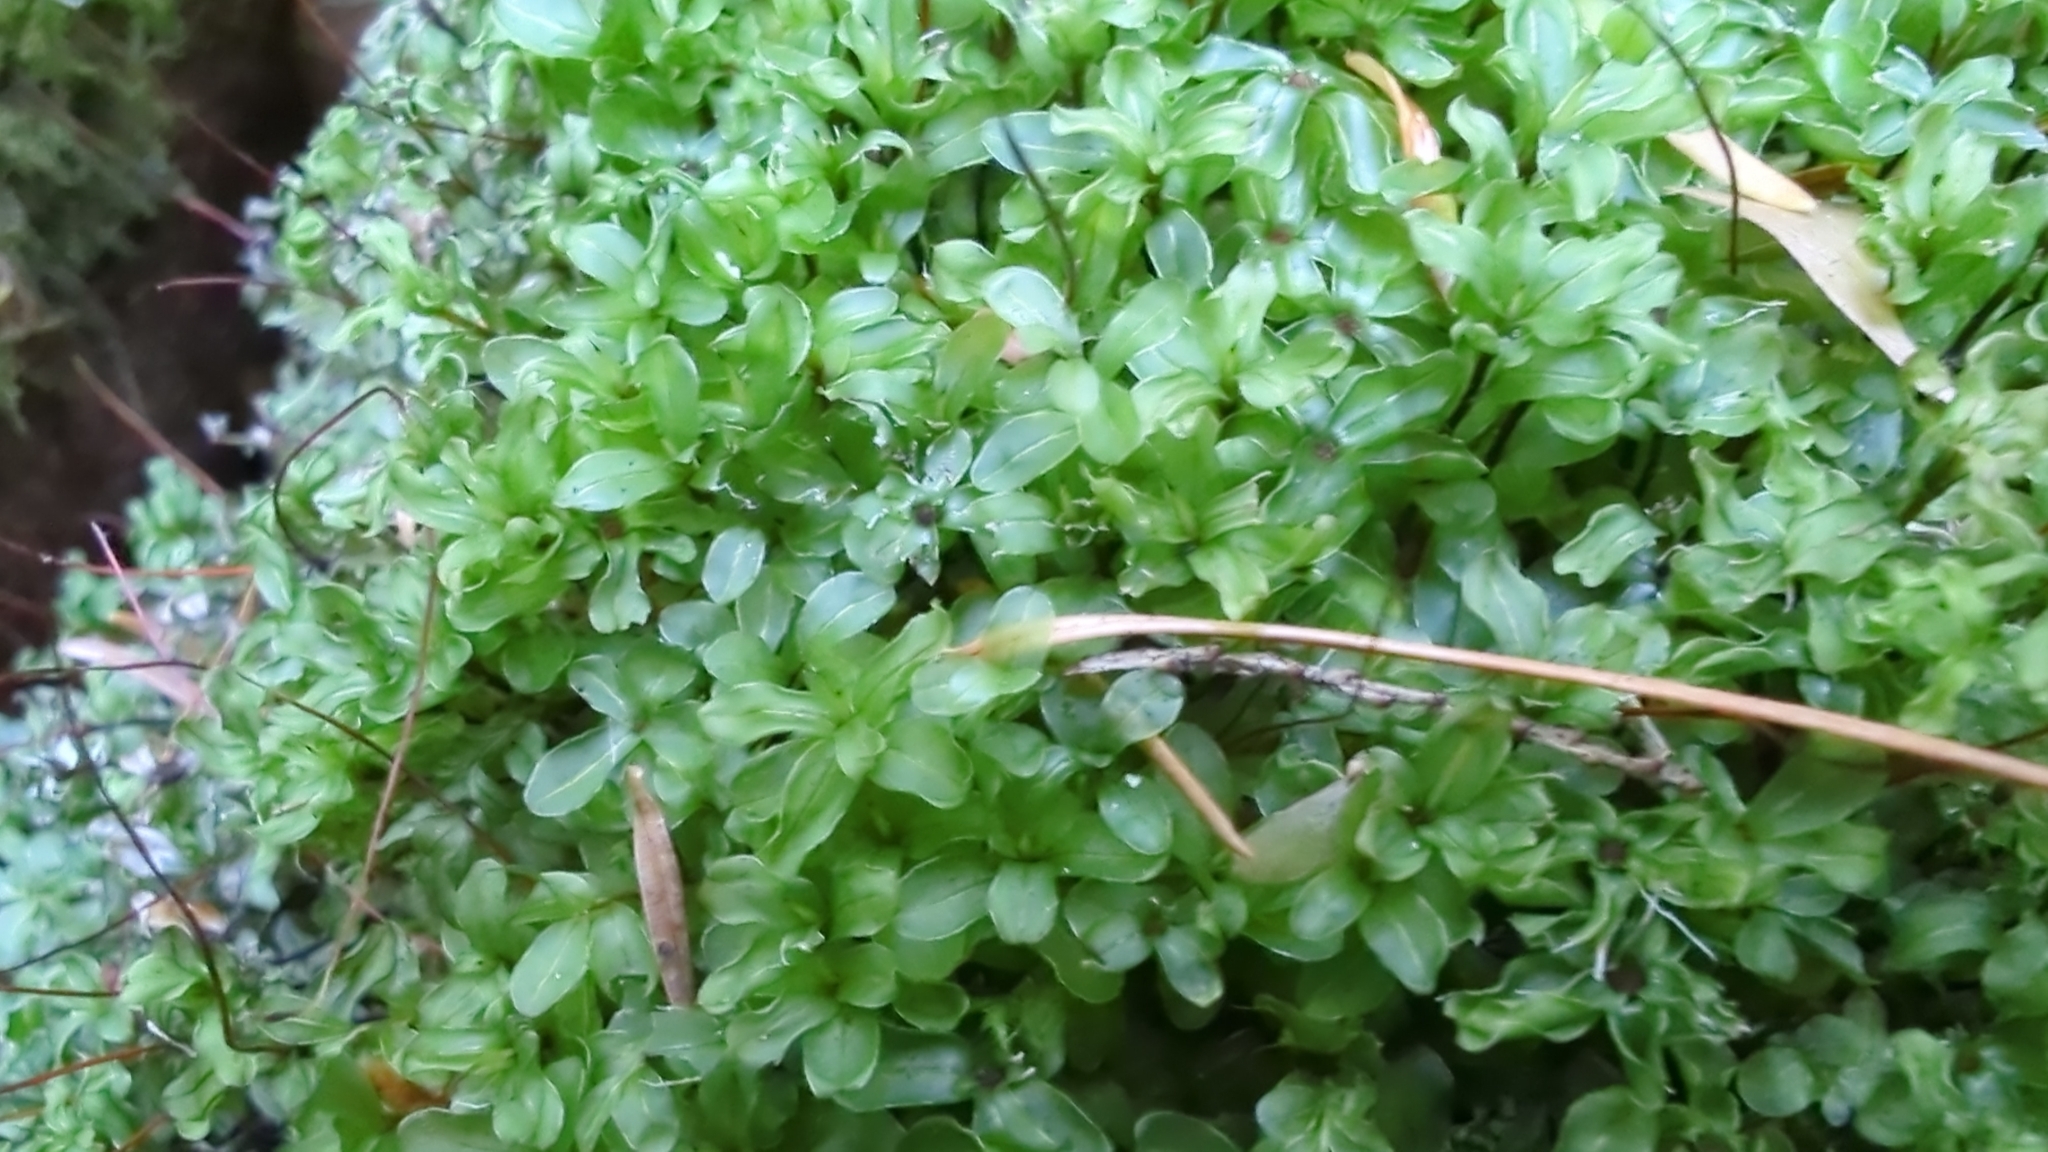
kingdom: Plantae
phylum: Bryophyta
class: Bryopsida
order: Bryales
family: Mniaceae
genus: Rhizomnium
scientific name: Rhizomnium glabrescens
